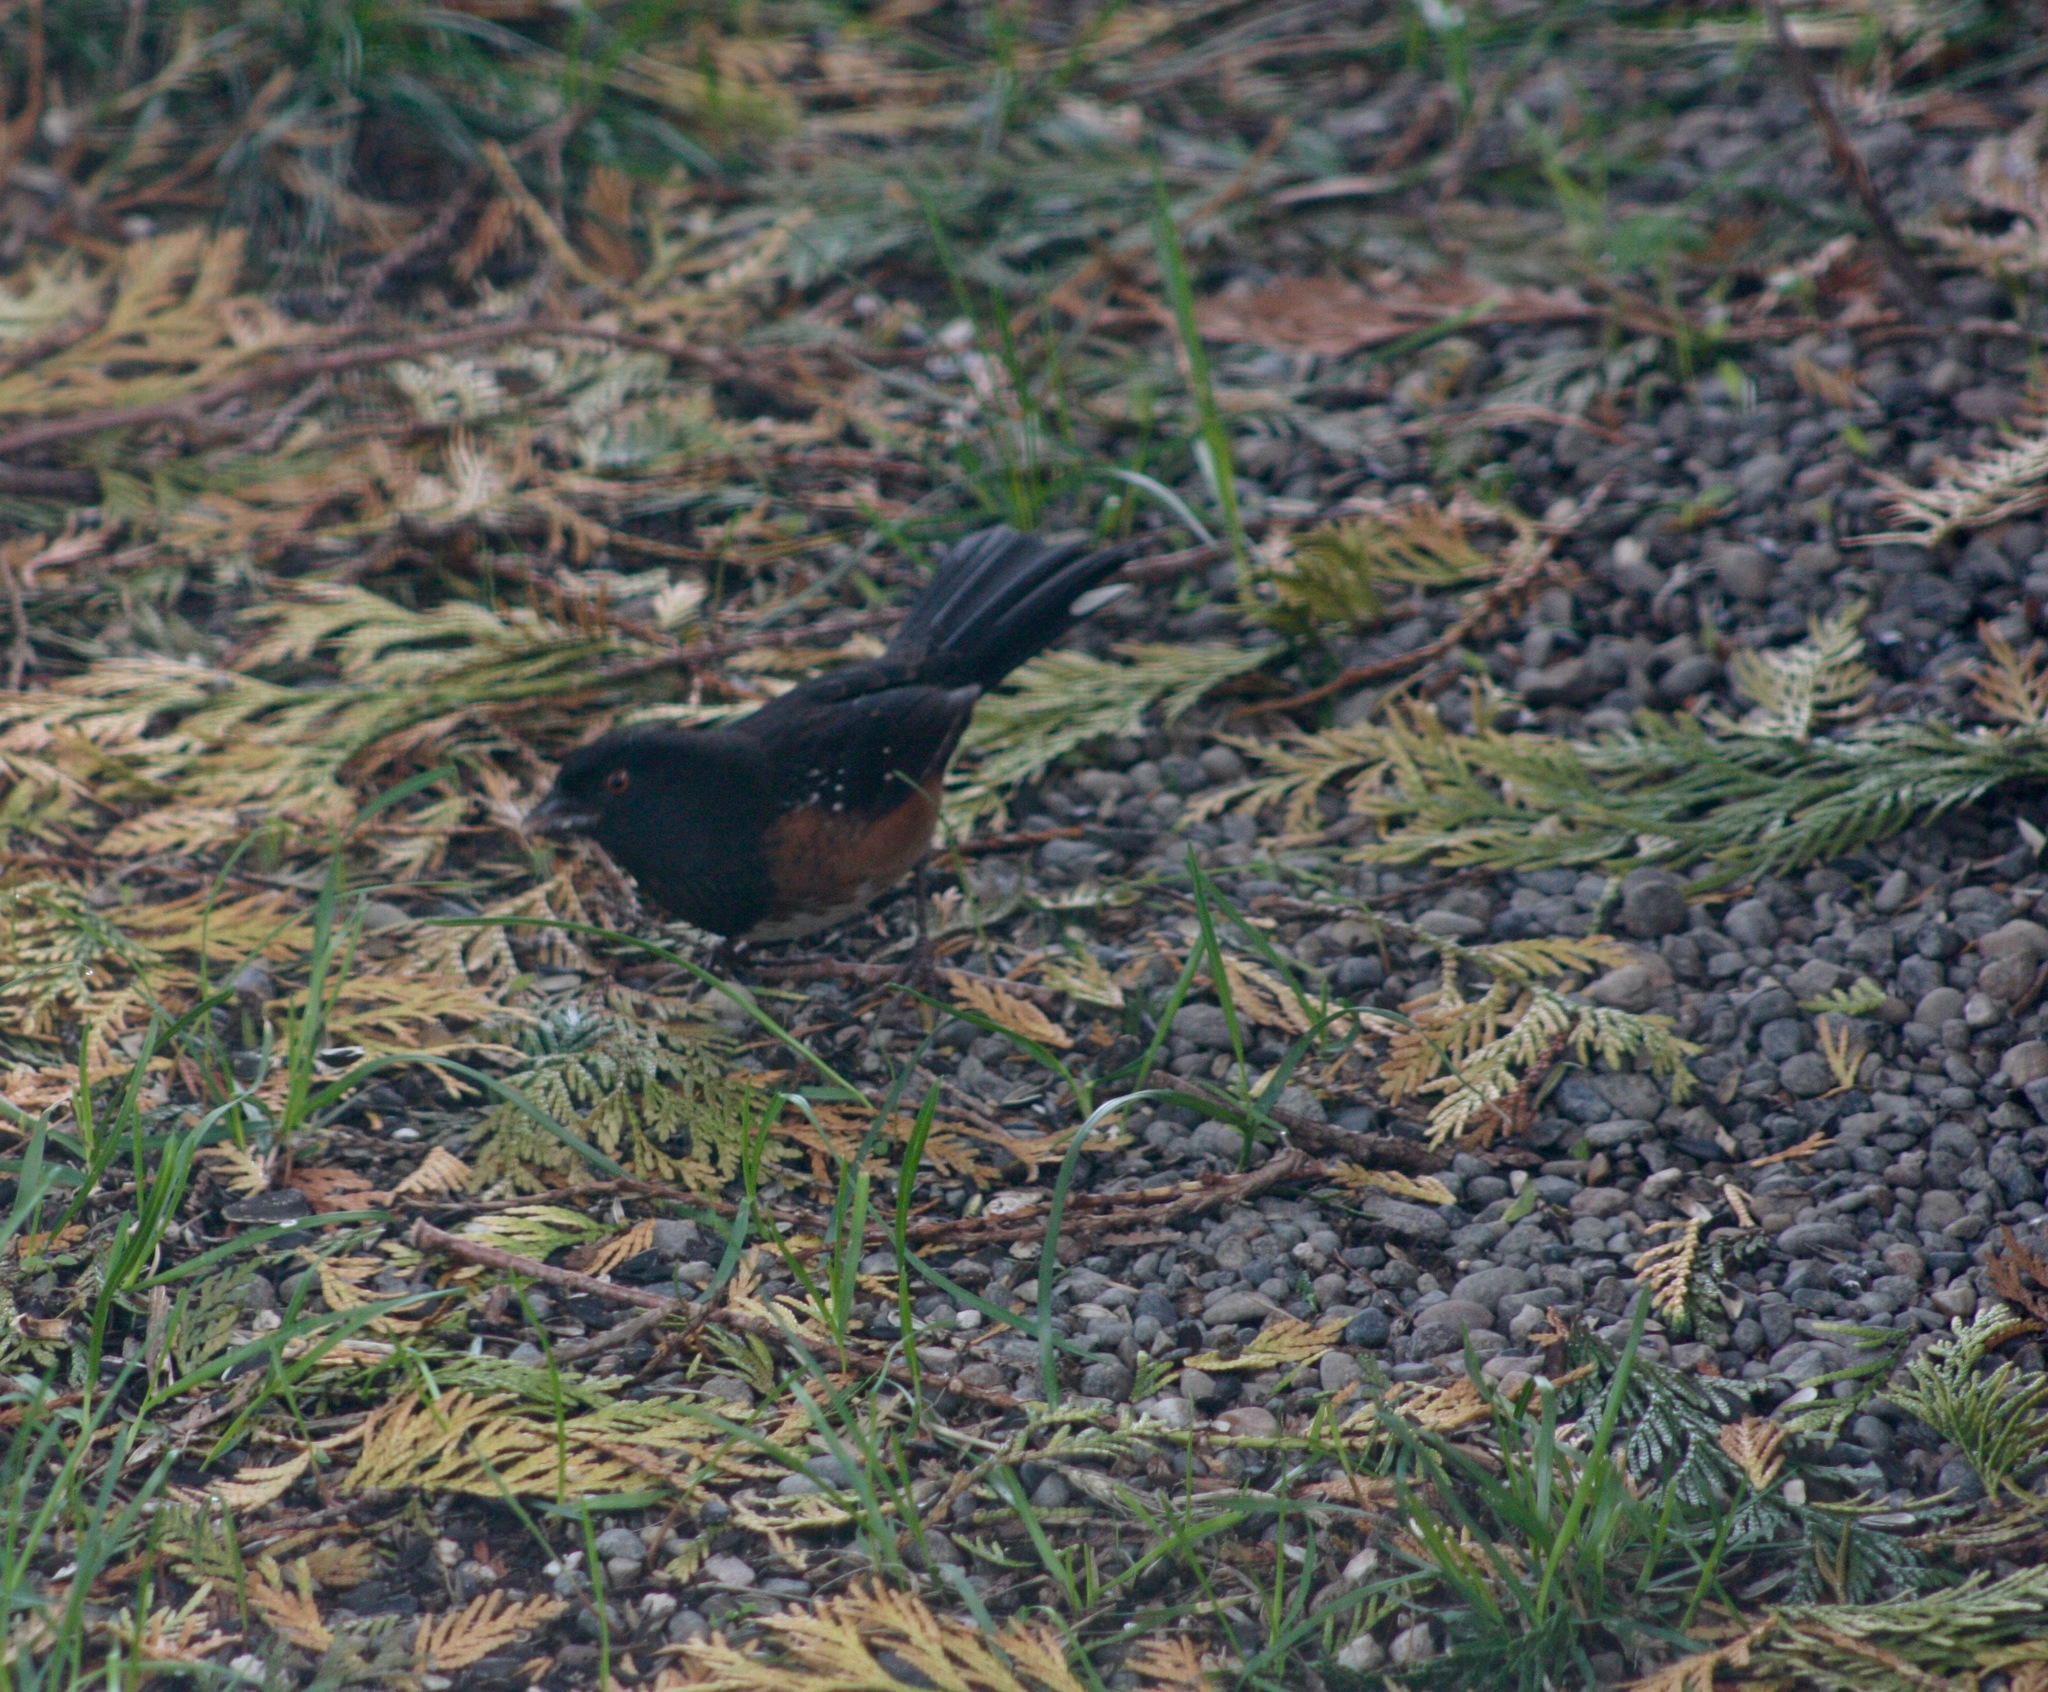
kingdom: Animalia
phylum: Chordata
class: Aves
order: Passeriformes
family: Passerellidae
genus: Pipilo
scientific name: Pipilo maculatus
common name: Spotted towhee
